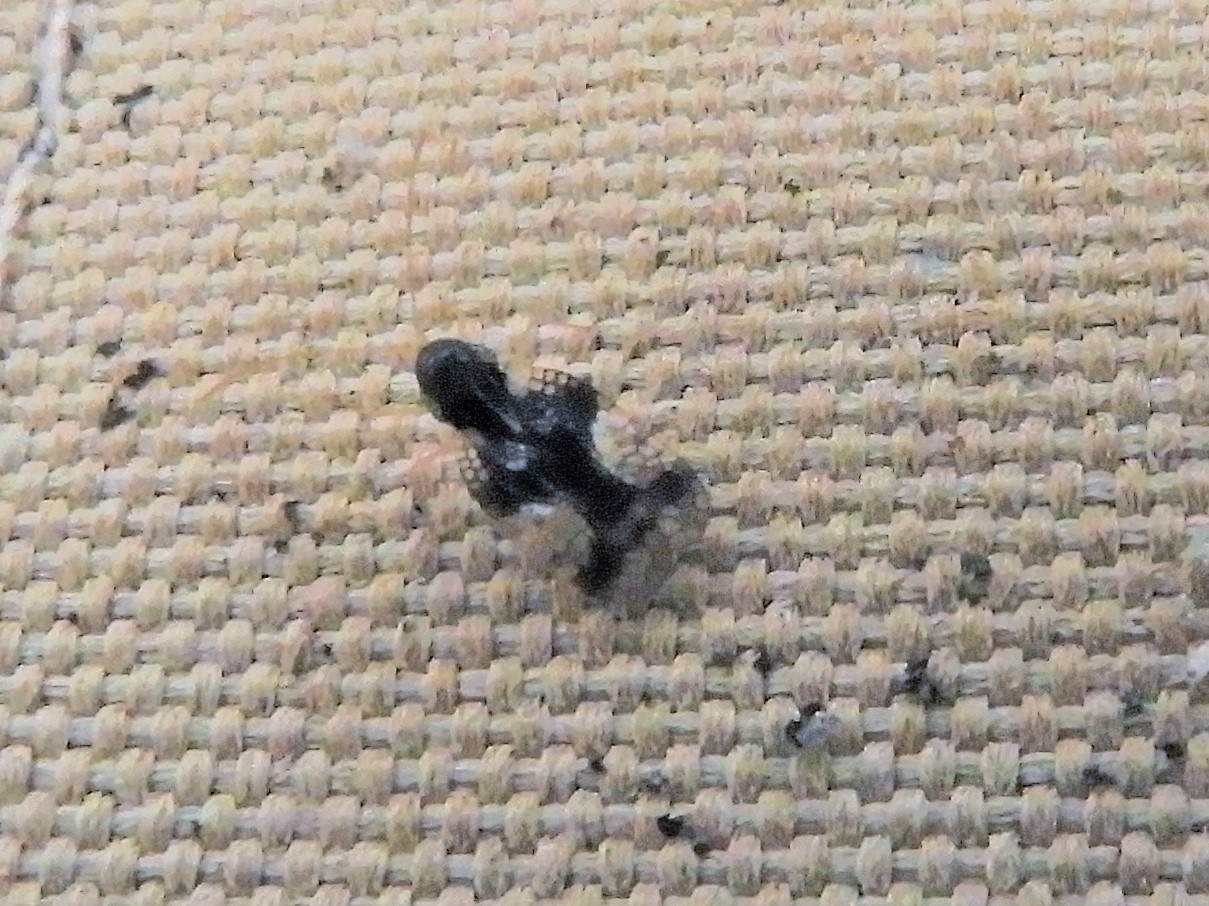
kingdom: Animalia
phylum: Arthropoda
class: Insecta
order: Hemiptera
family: Tingidae
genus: Stephanitis
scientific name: Stephanitis takeyai
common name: Andromeda lacebug
